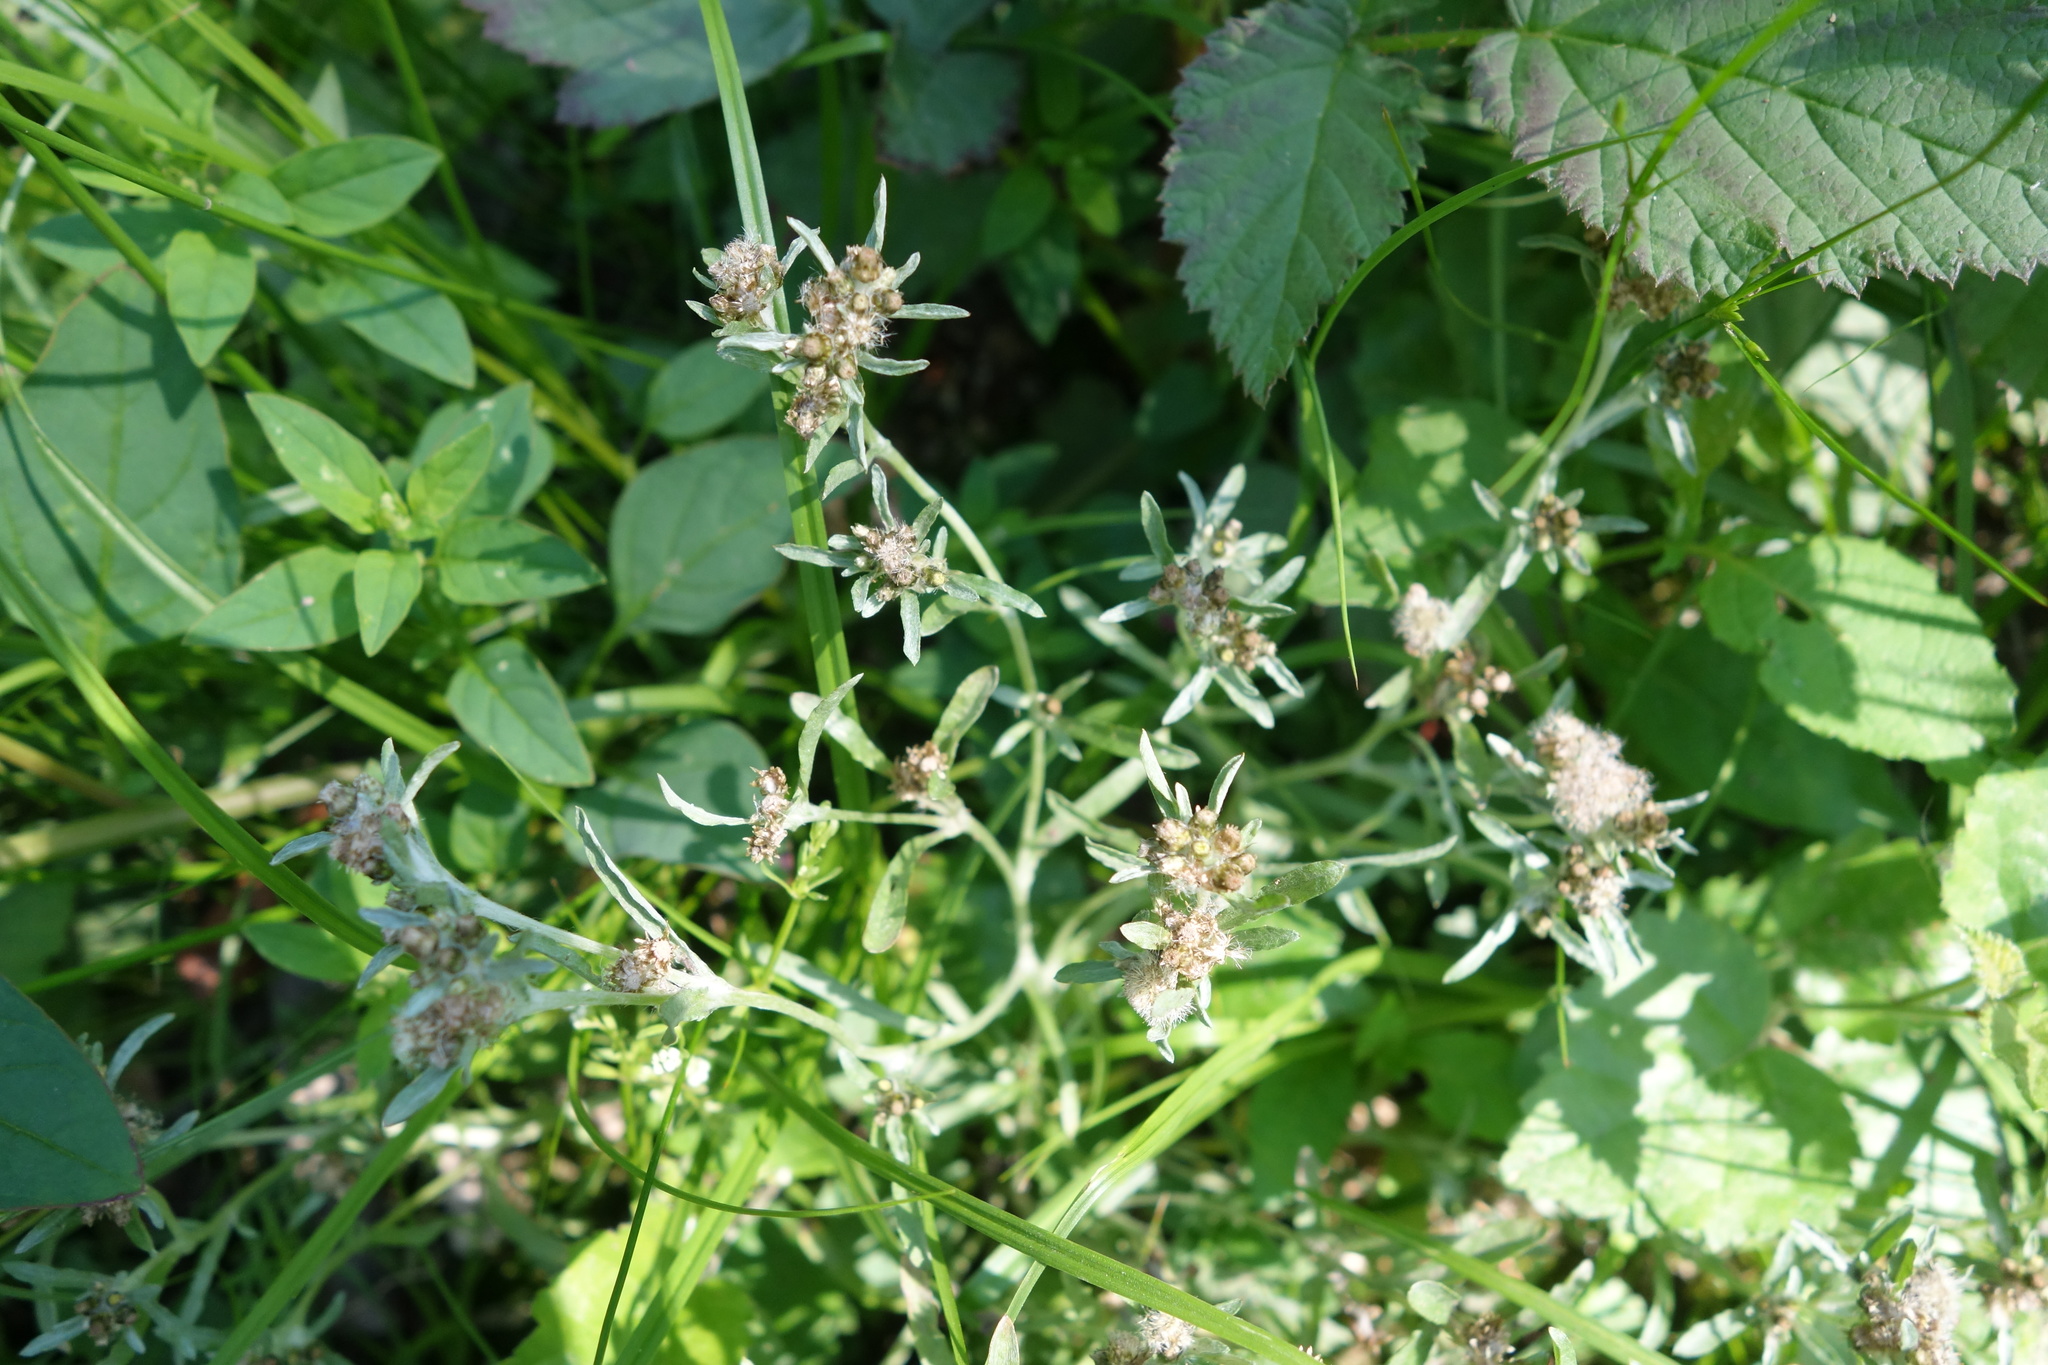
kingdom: Plantae
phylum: Tracheophyta
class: Magnoliopsida
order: Asterales
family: Asteraceae
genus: Gnaphalium
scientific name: Gnaphalium uliginosum
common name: Marsh cudweed
